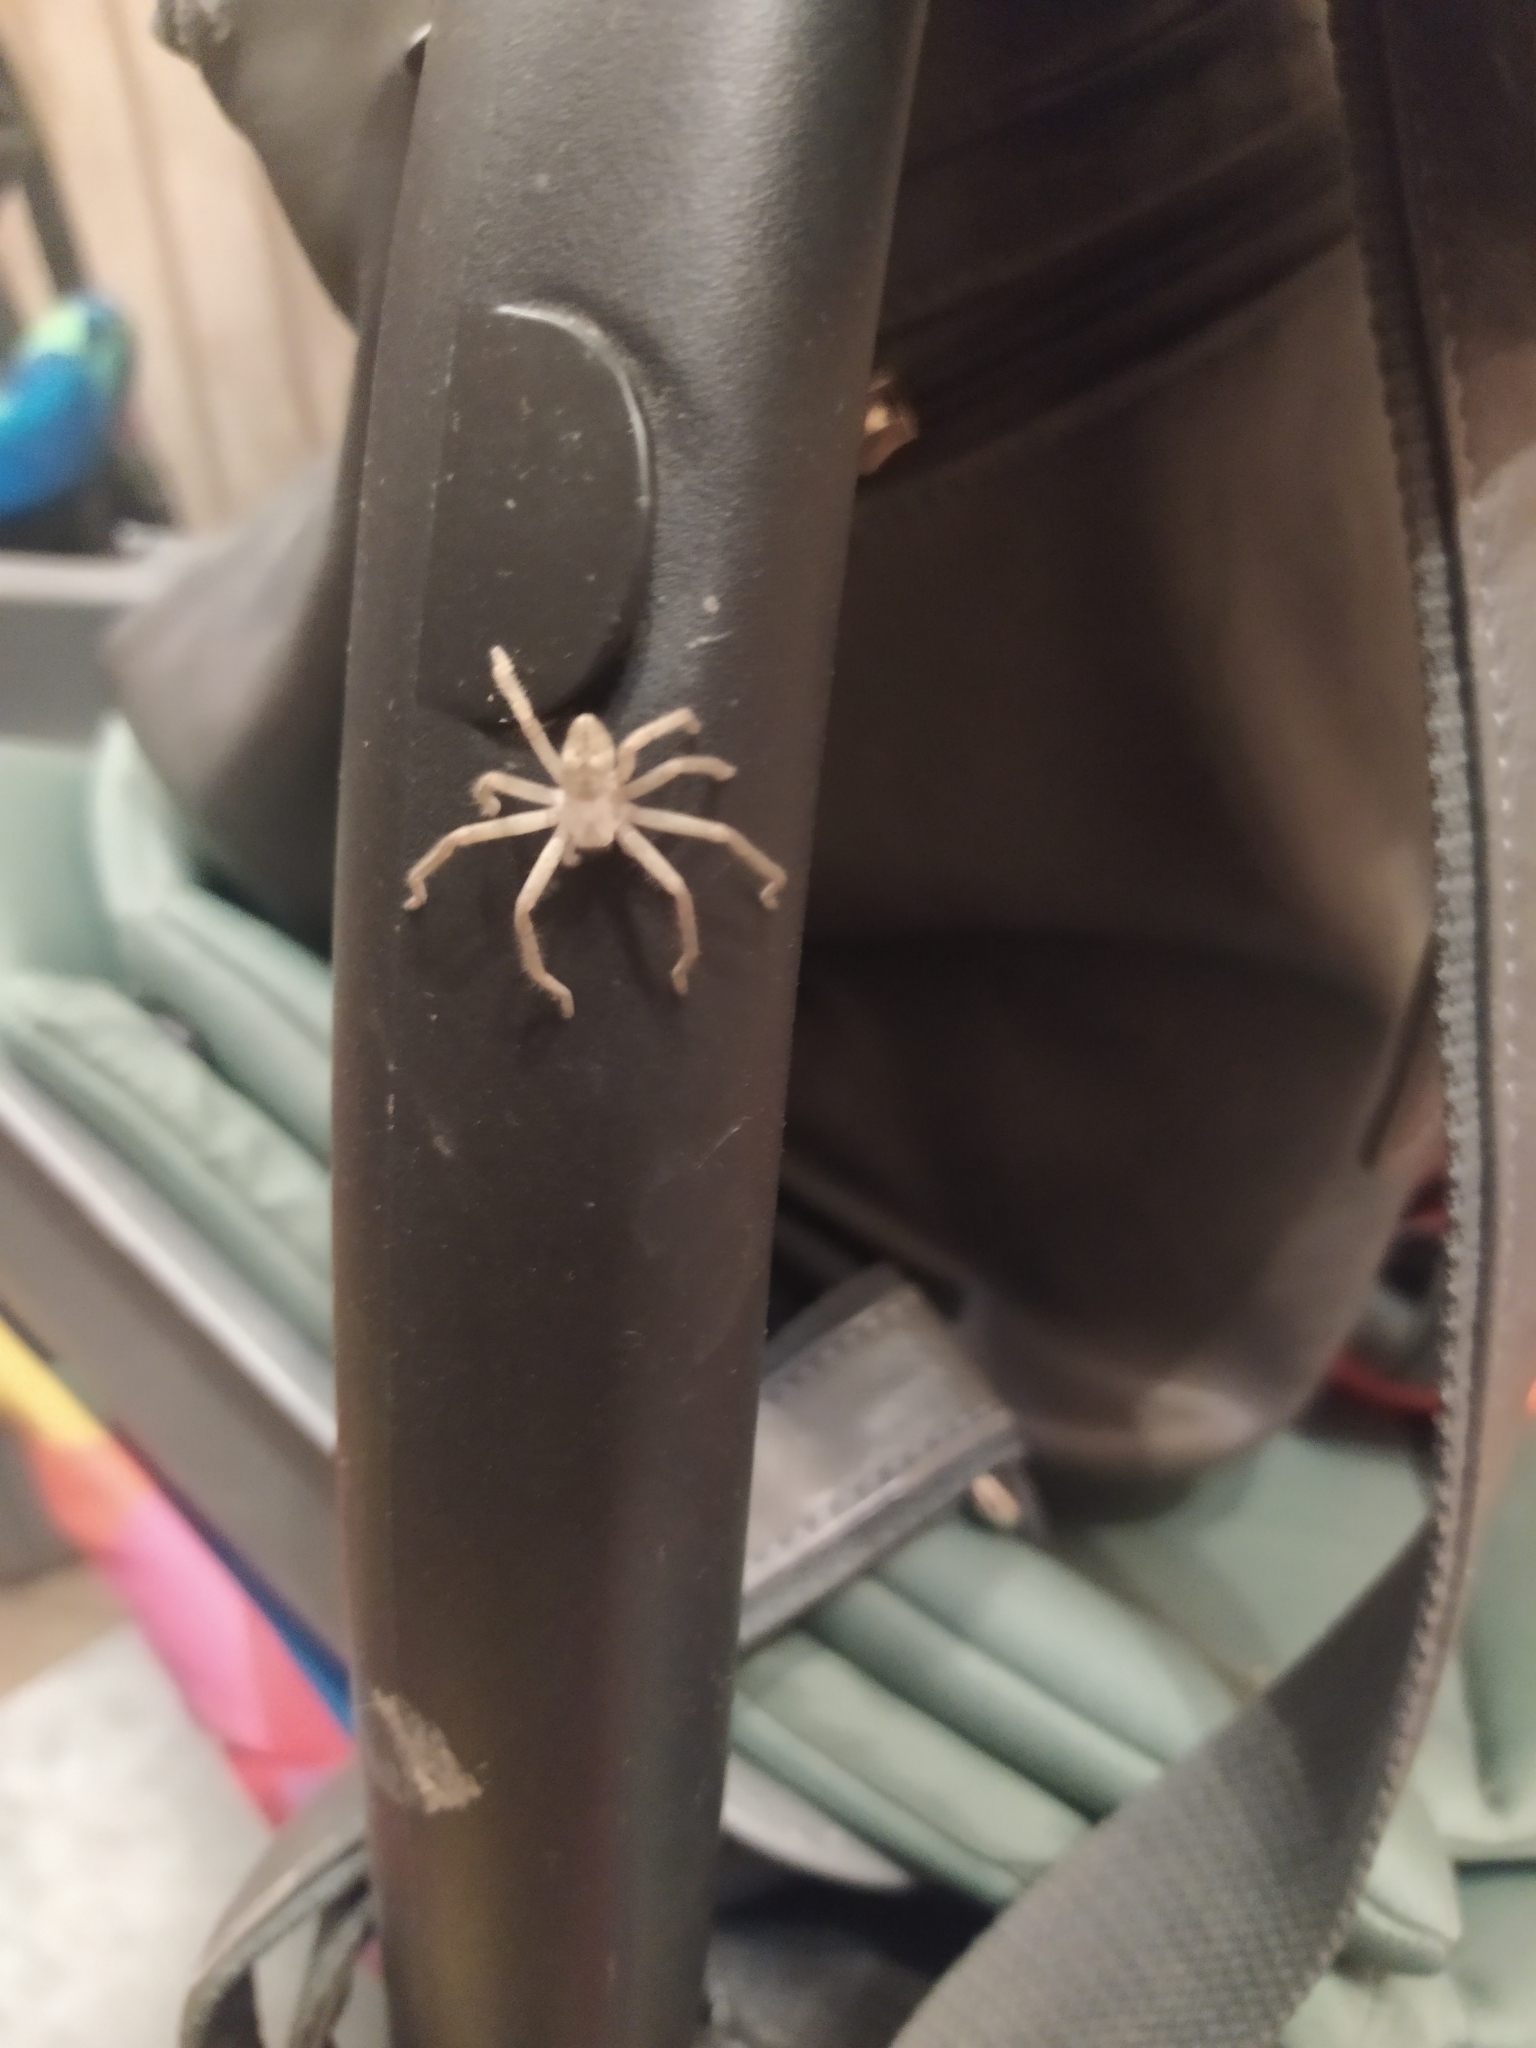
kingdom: Animalia
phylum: Arthropoda
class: Arachnida
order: Araneae
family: Sparassidae
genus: Olios
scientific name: Olios sericeus
